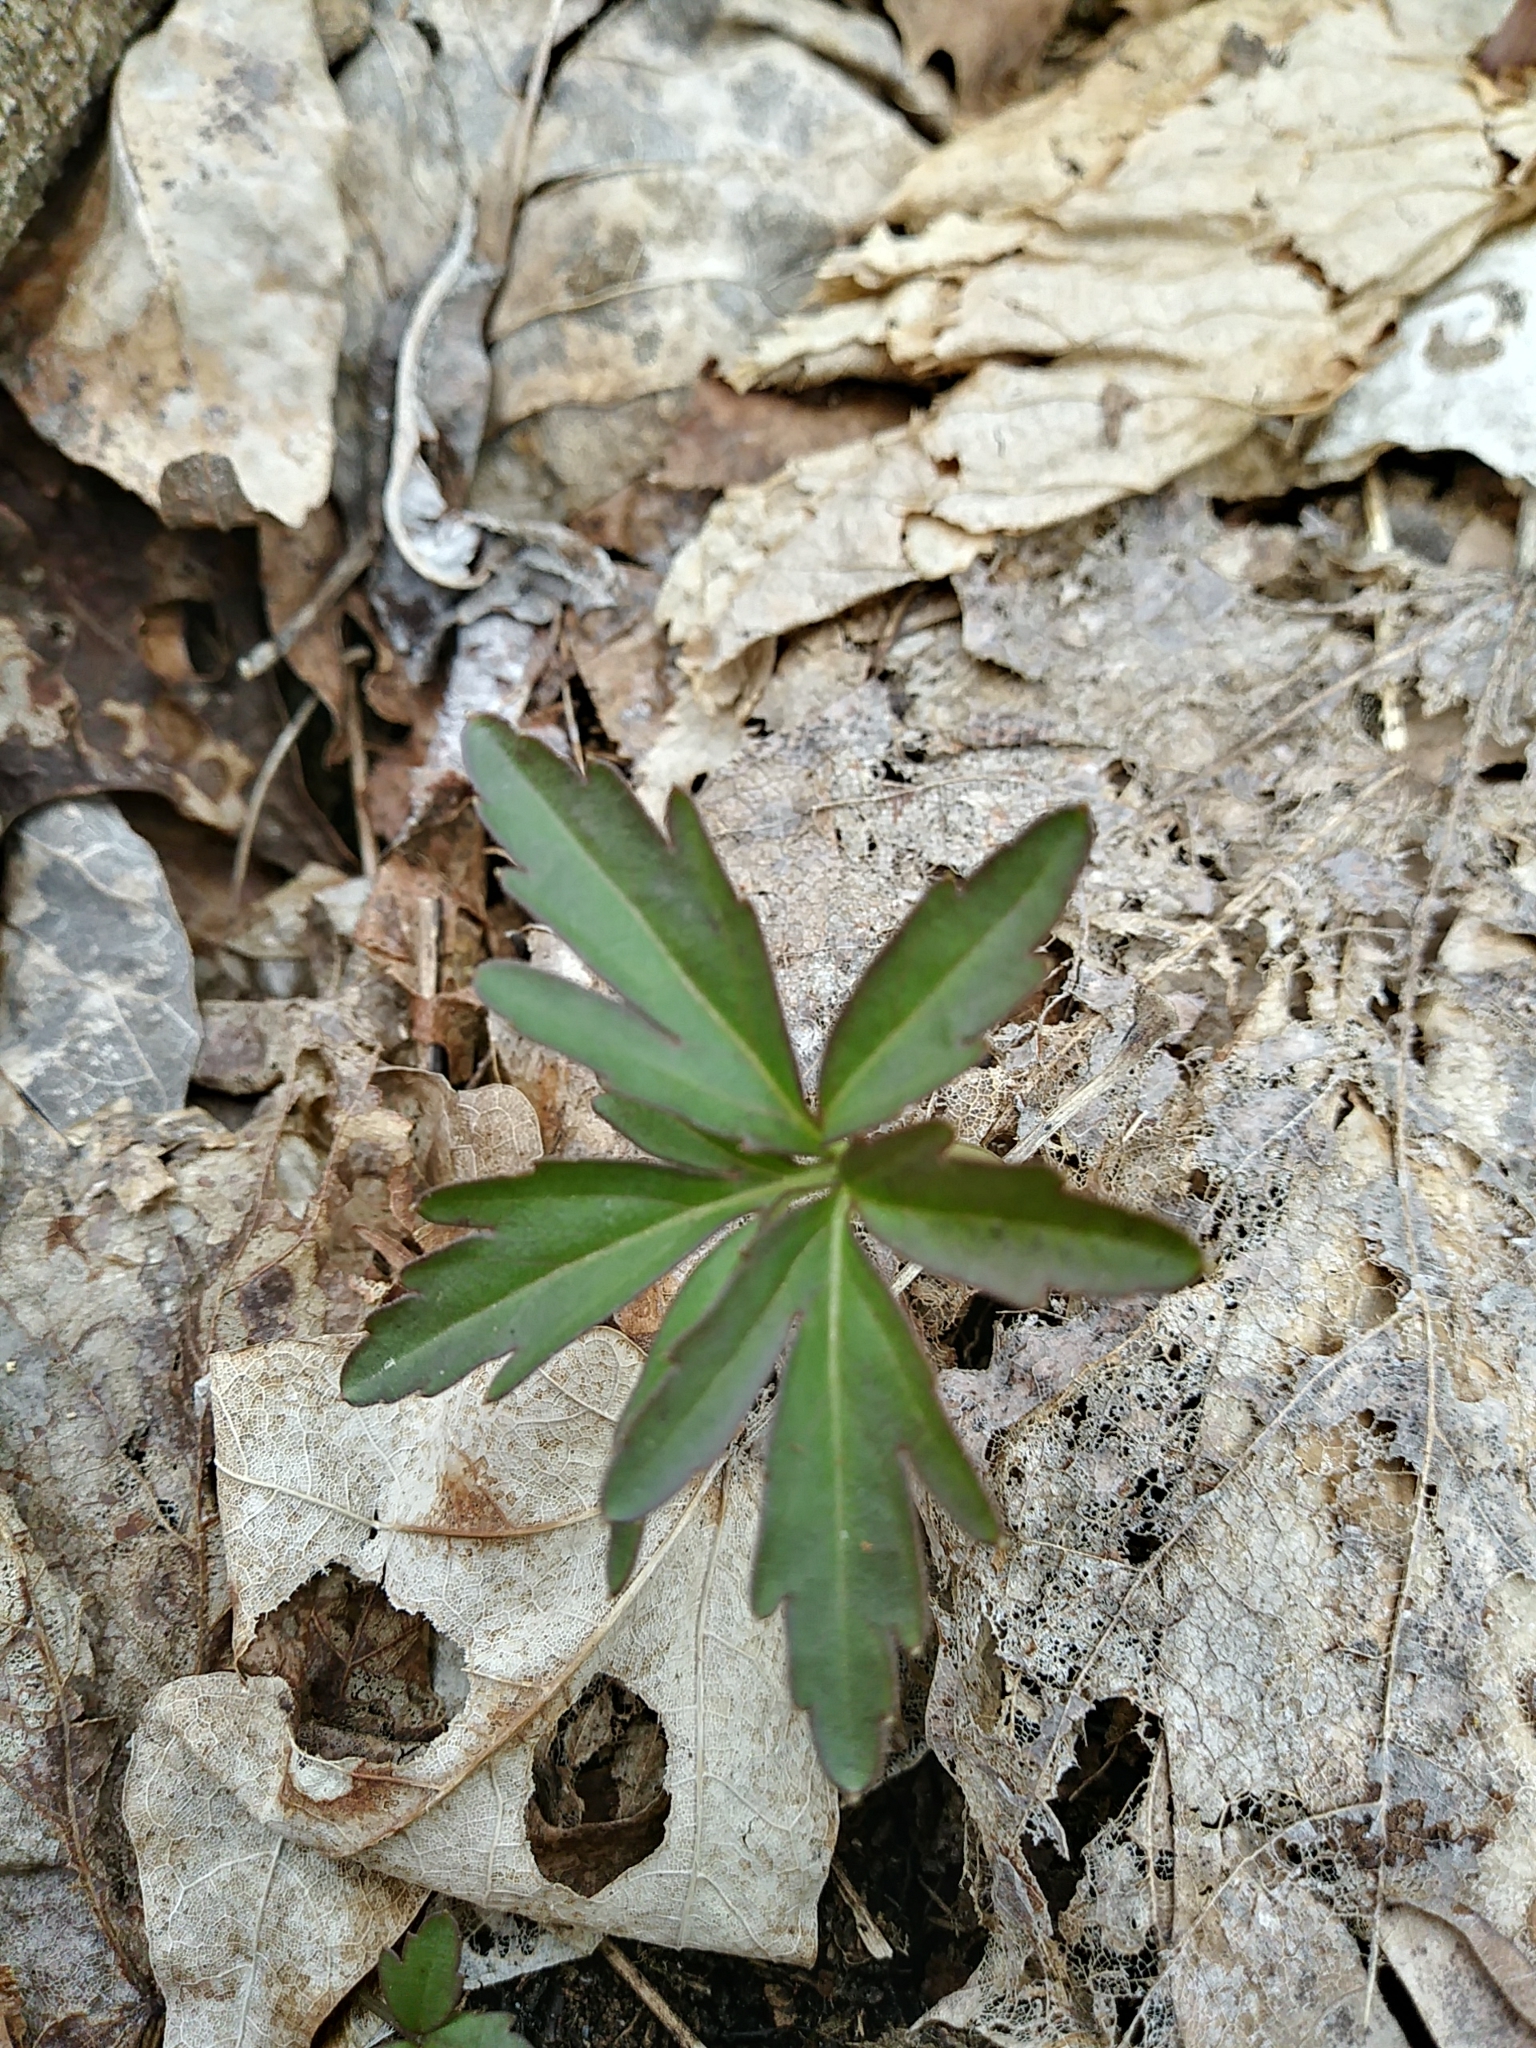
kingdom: Plantae
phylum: Tracheophyta
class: Magnoliopsida
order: Brassicales
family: Brassicaceae
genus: Cardamine
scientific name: Cardamine concatenata
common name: Cut-leaf toothcup
